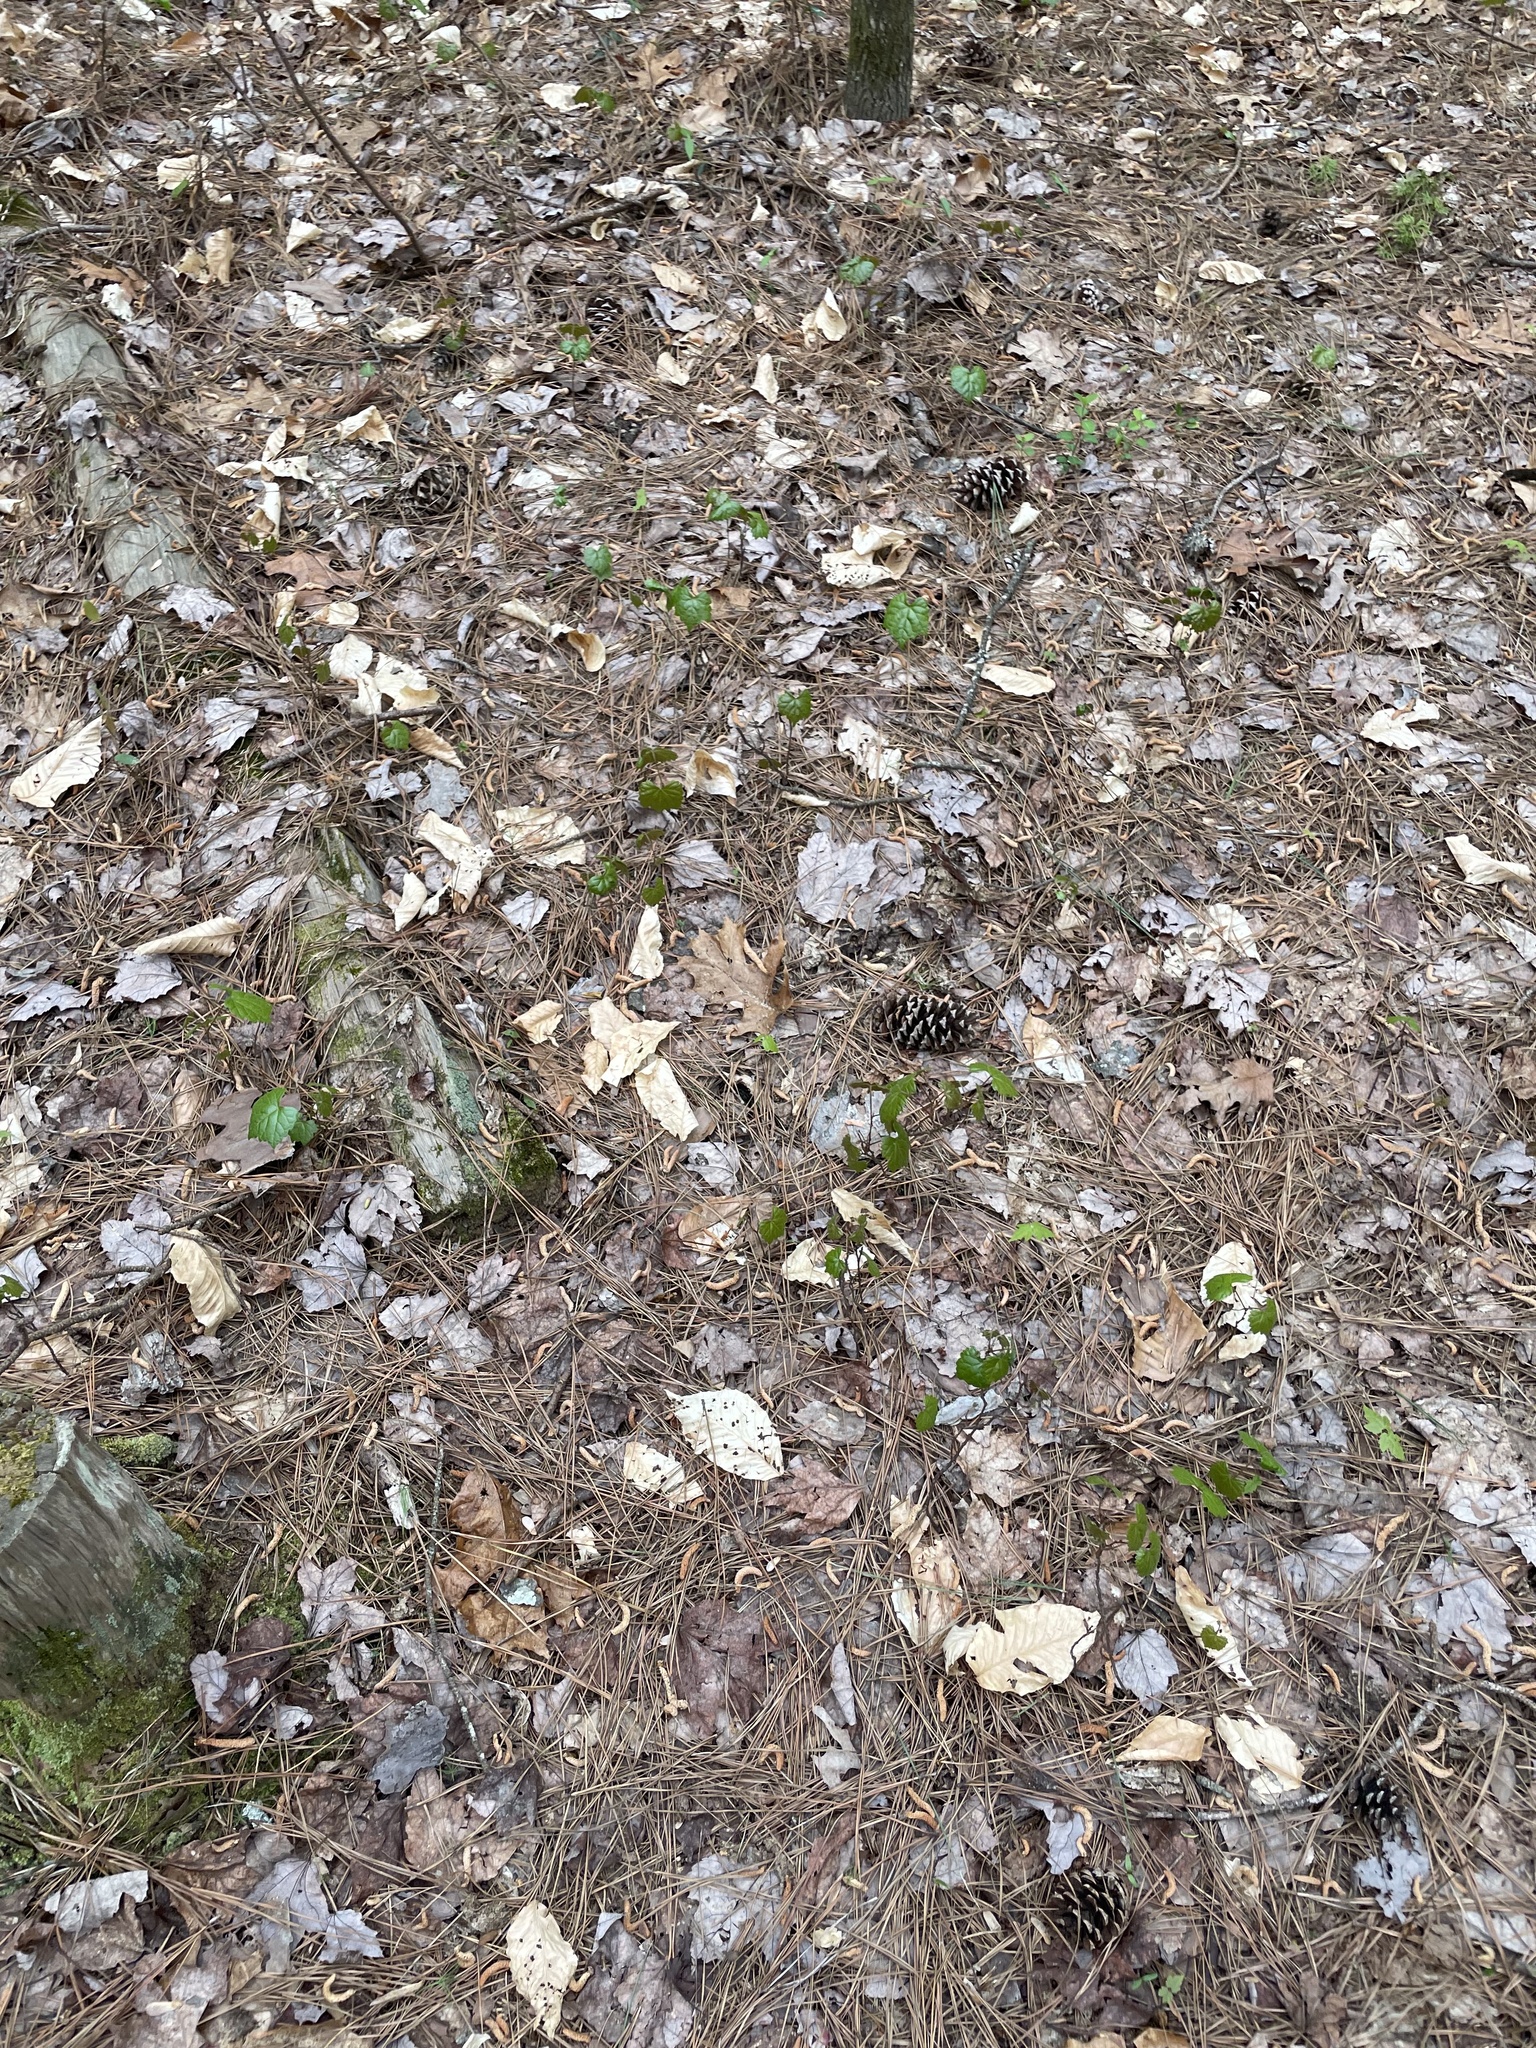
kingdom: Plantae
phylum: Tracheophyta
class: Magnoliopsida
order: Vitales
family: Vitaceae
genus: Vitis
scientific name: Vitis rotundifolia
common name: Muscadine grape
